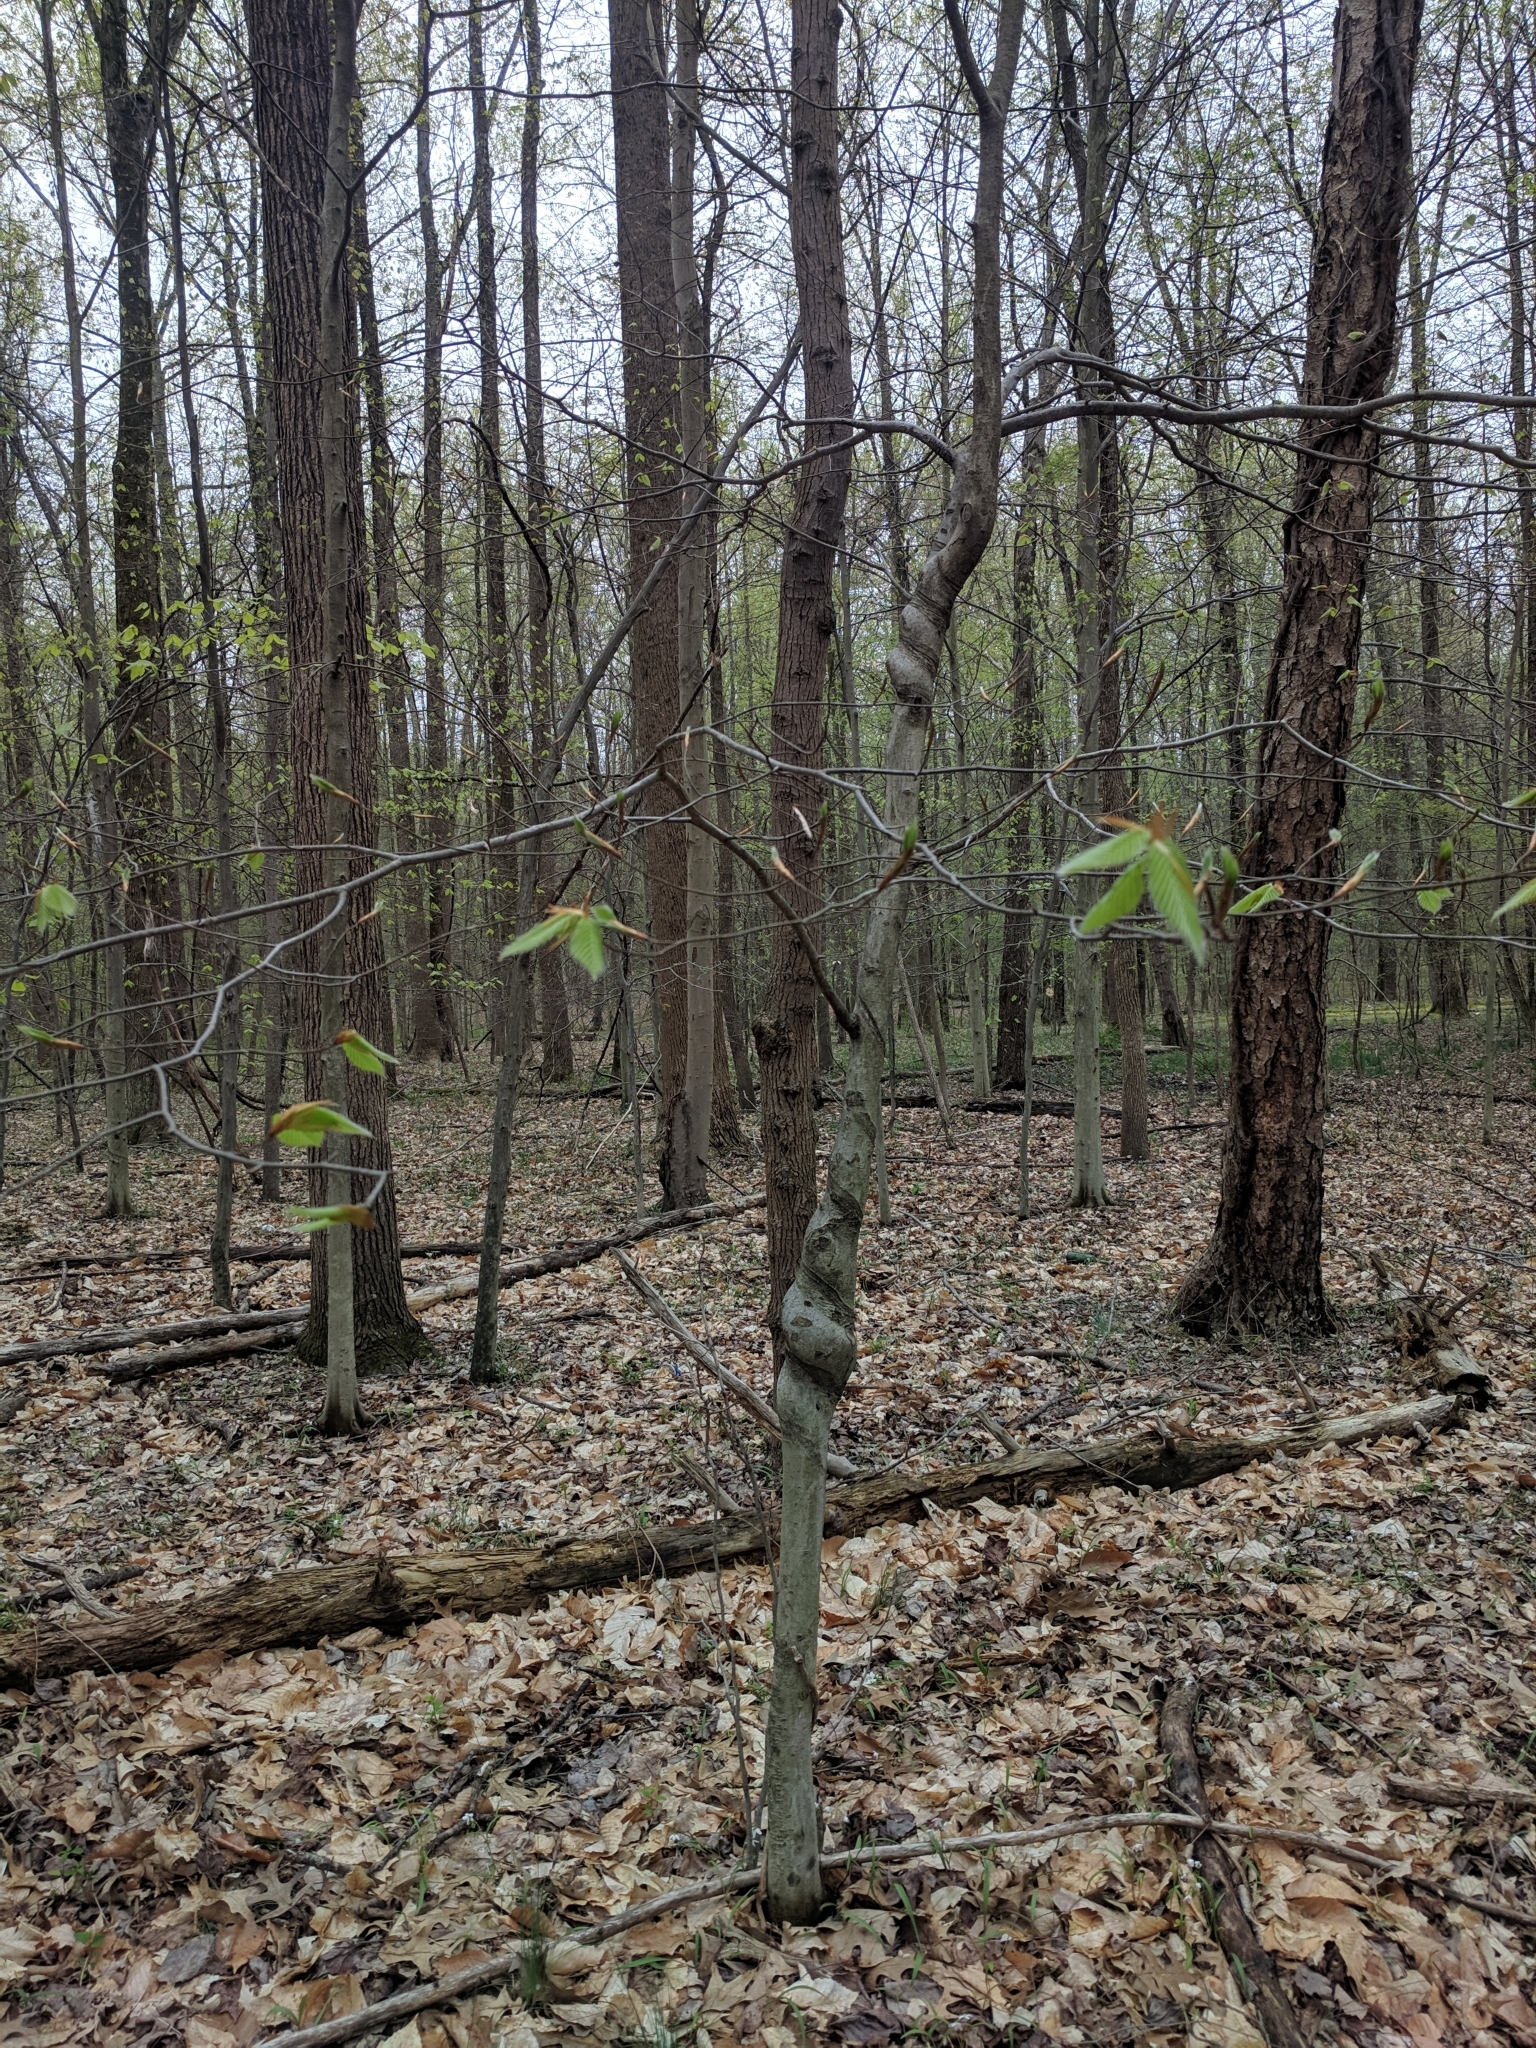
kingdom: Plantae
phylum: Tracheophyta
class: Magnoliopsida
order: Fagales
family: Fagaceae
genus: Fagus
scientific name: Fagus grandifolia
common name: American beech
